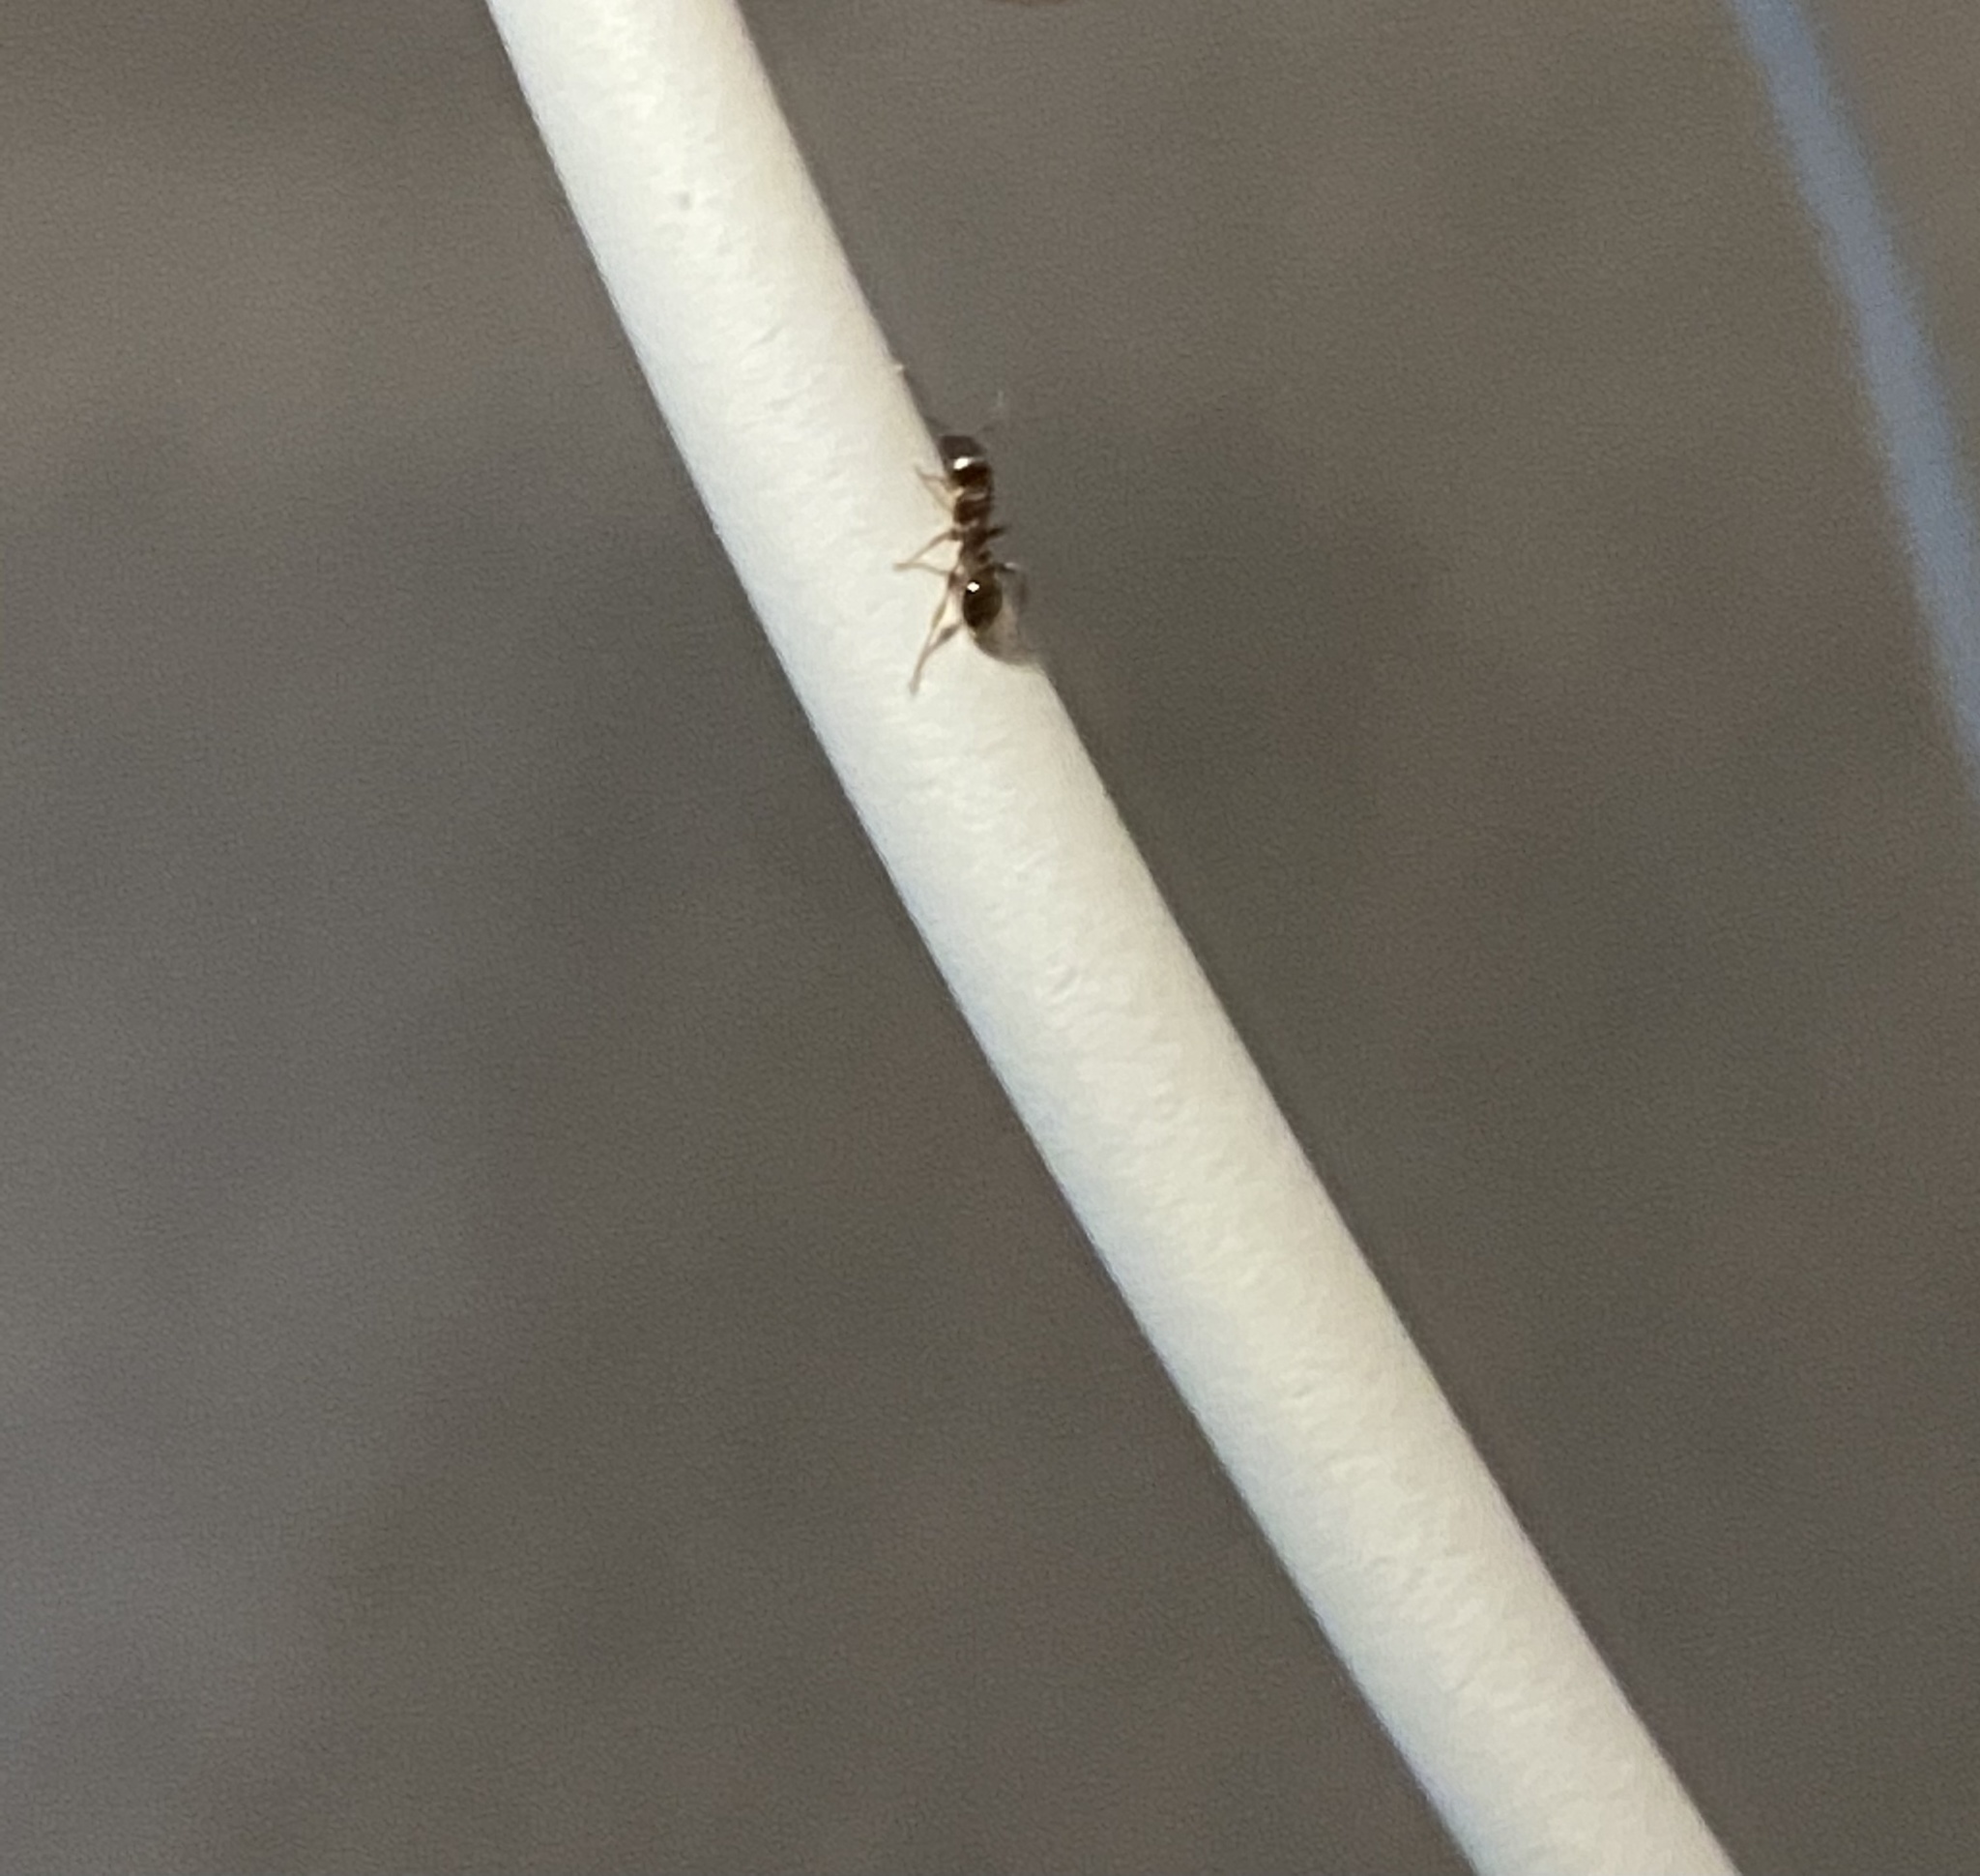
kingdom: Animalia
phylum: Arthropoda
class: Insecta
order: Hymenoptera
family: Formicidae
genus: Tetramorium
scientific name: Tetramorium immigrans
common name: Pavement ant
